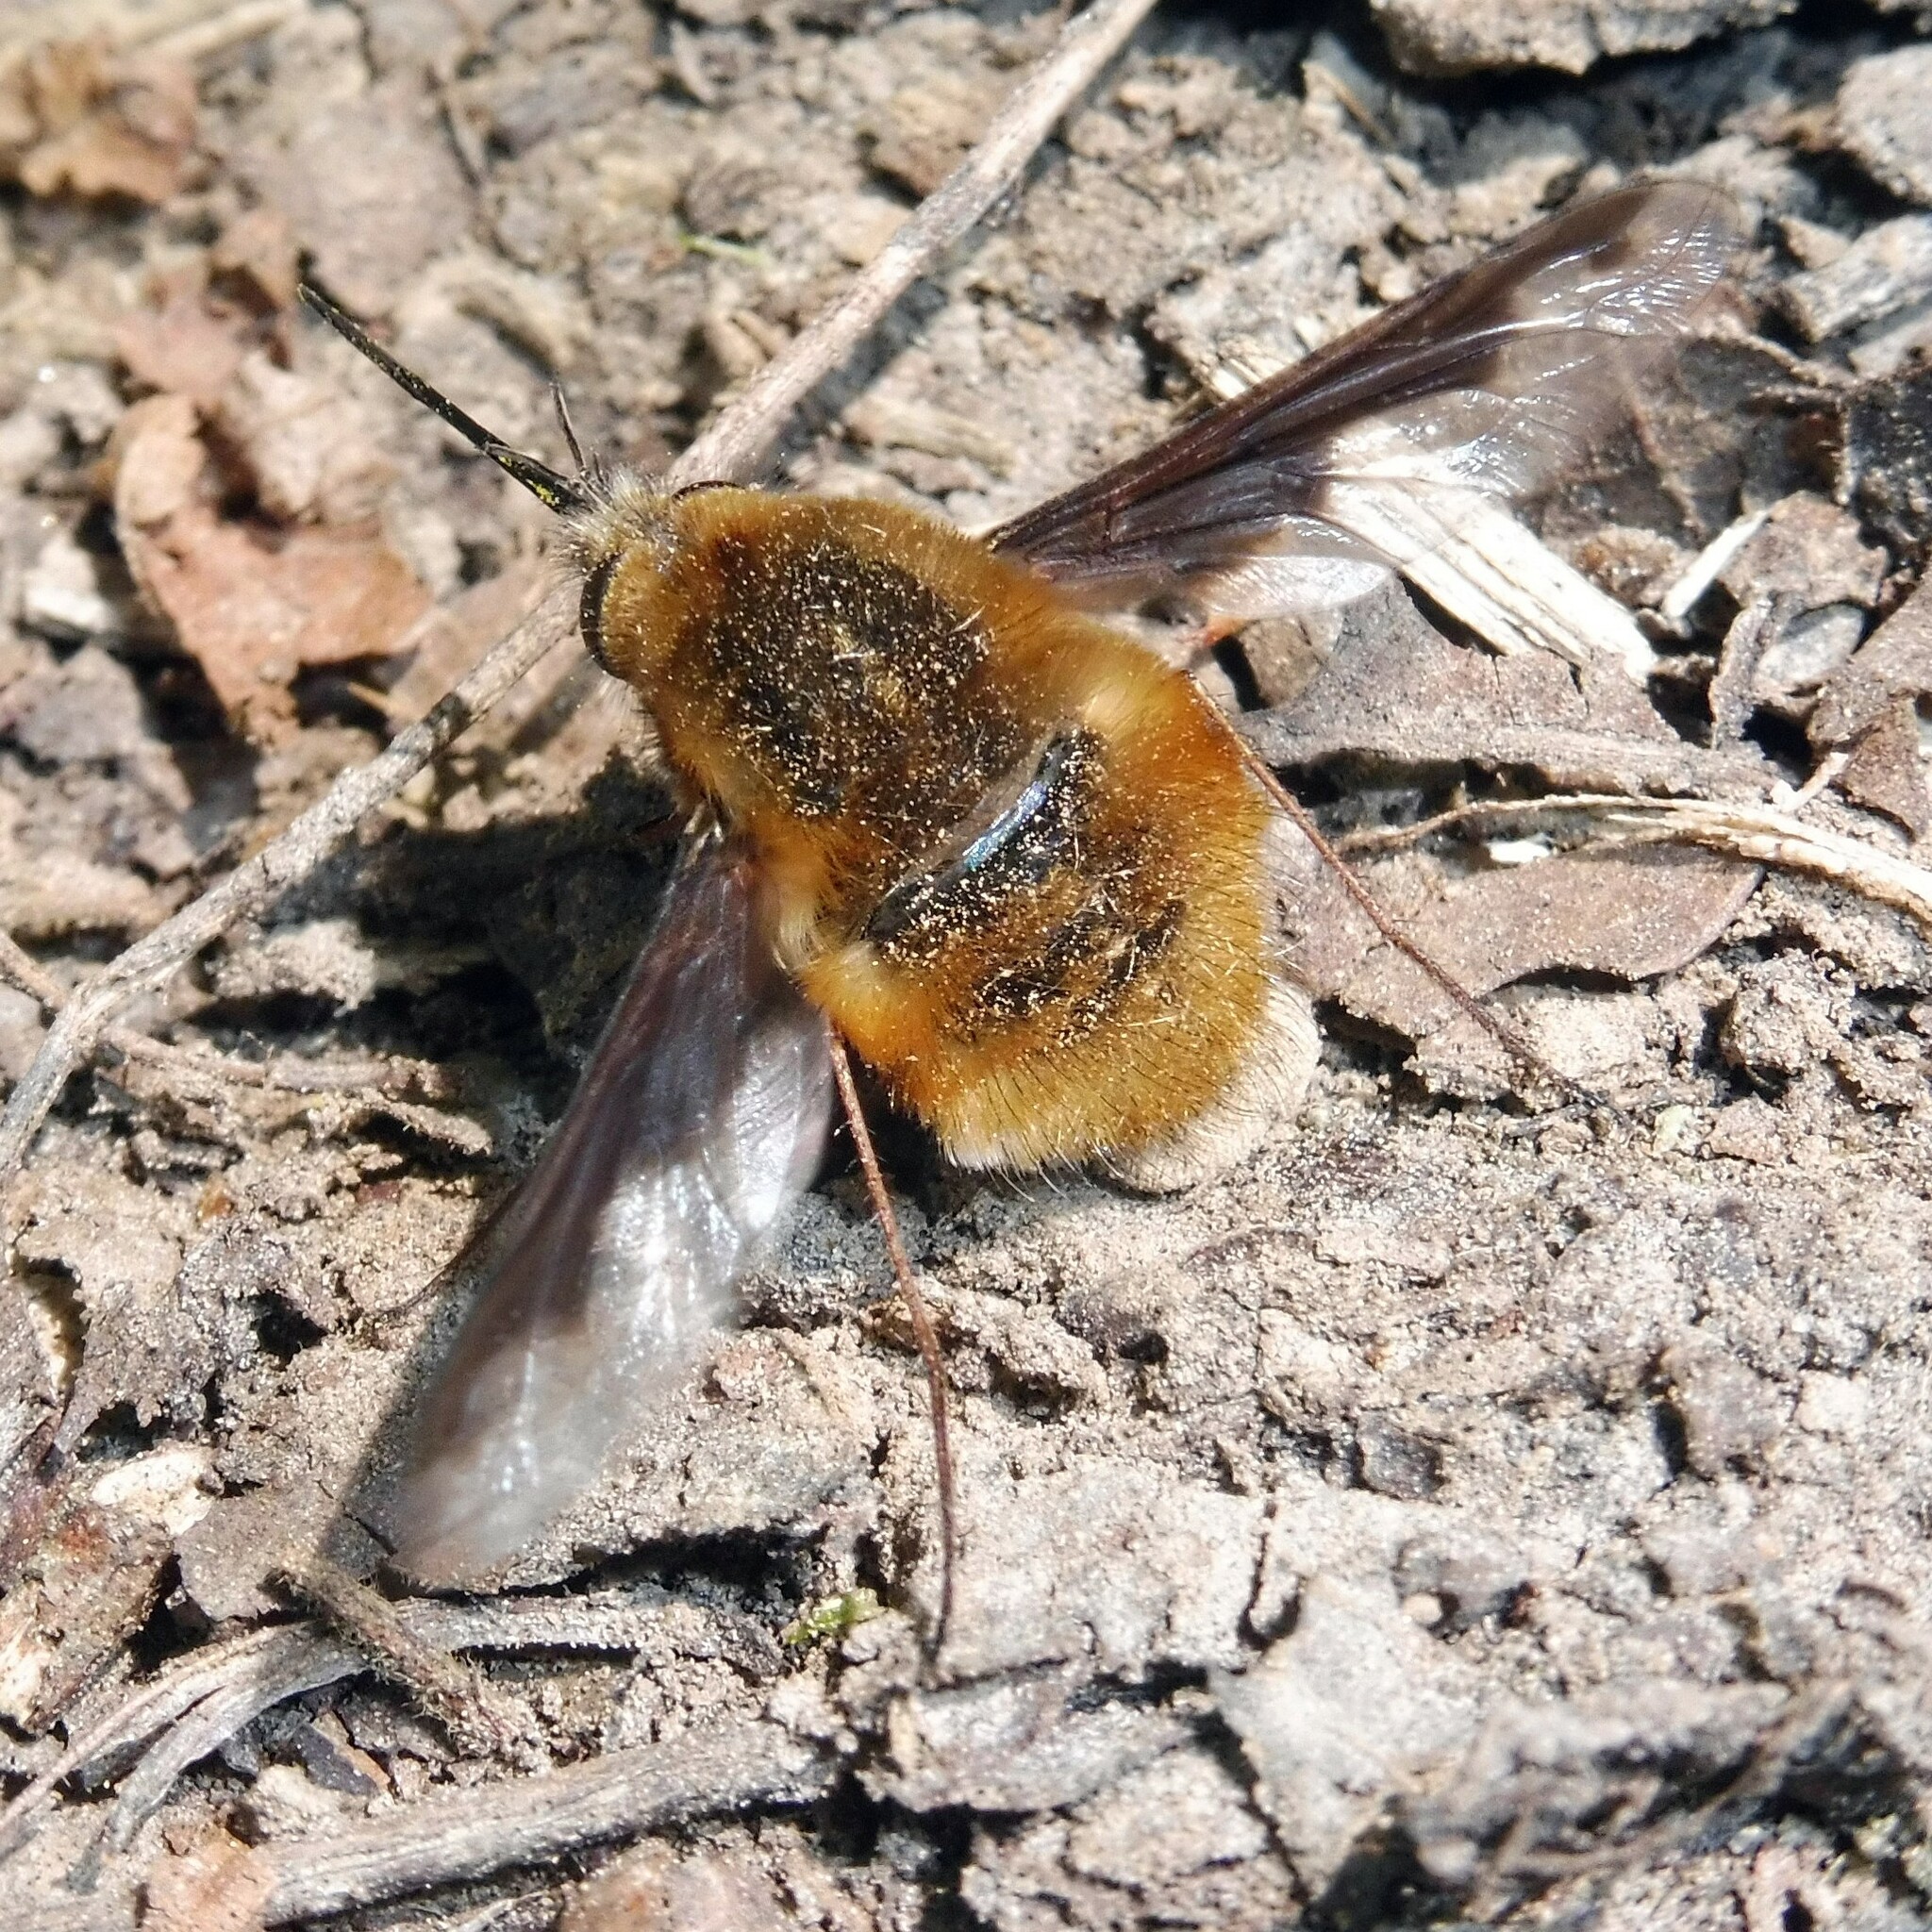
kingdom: Animalia
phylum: Arthropoda
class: Insecta
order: Diptera
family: Bombyliidae
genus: Bombylius
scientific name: Bombylius major
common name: Bee fly
